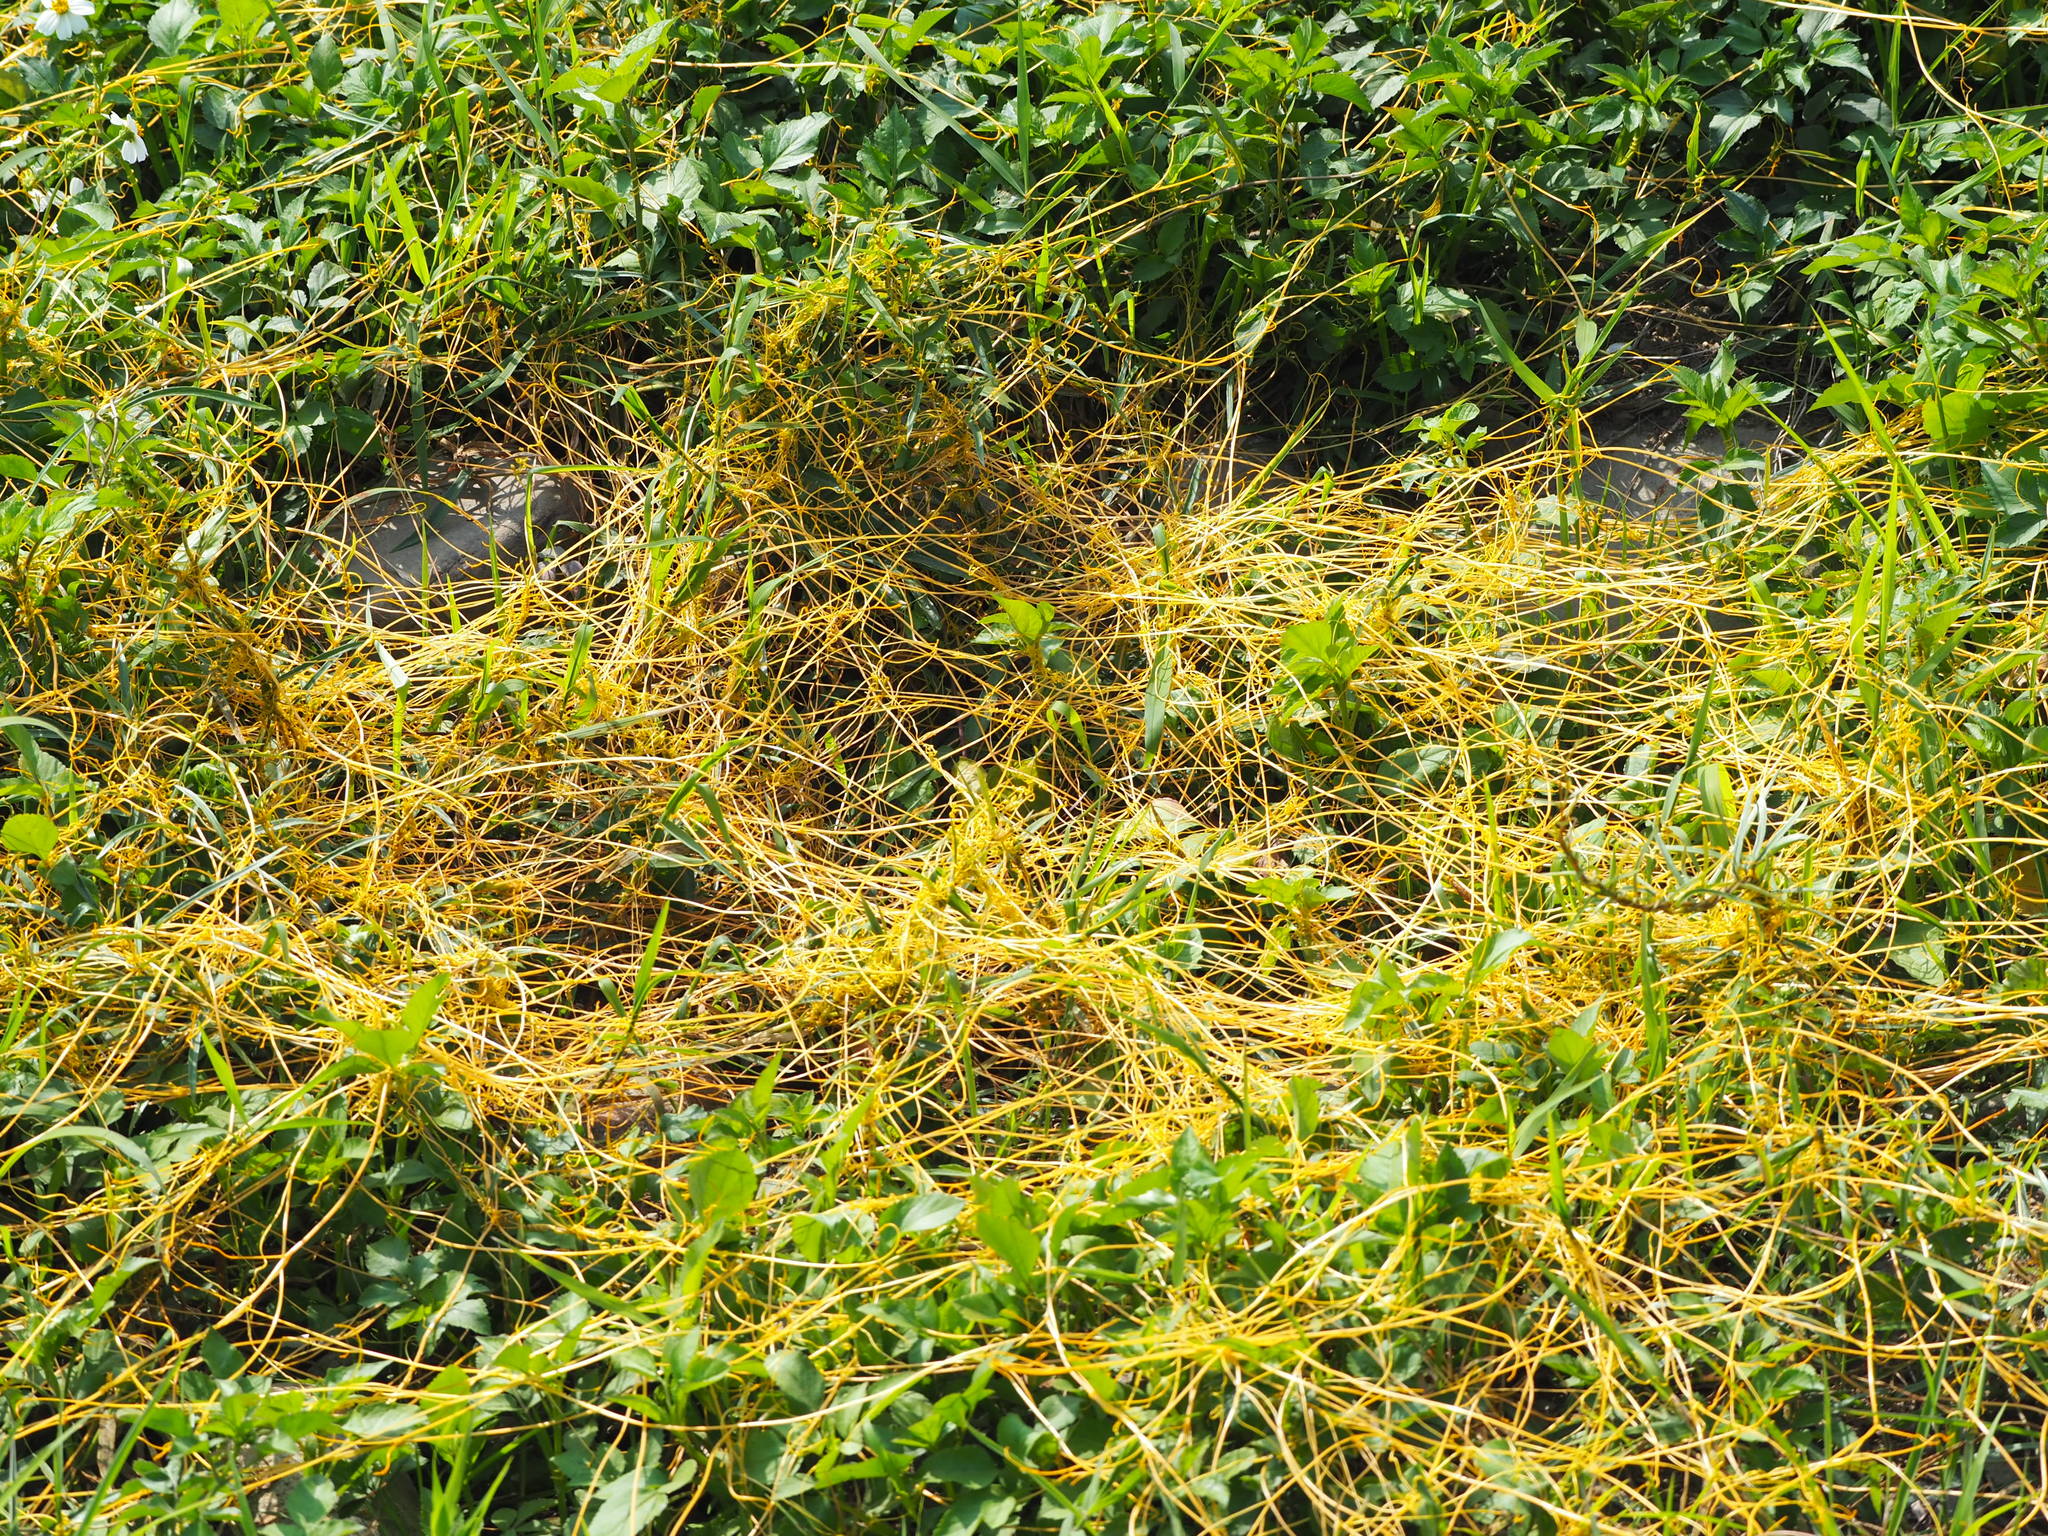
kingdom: Plantae
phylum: Tracheophyta
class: Magnoliopsida
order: Solanales
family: Convolvulaceae
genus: Cuscuta
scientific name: Cuscuta campestris
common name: Yellow dodder
